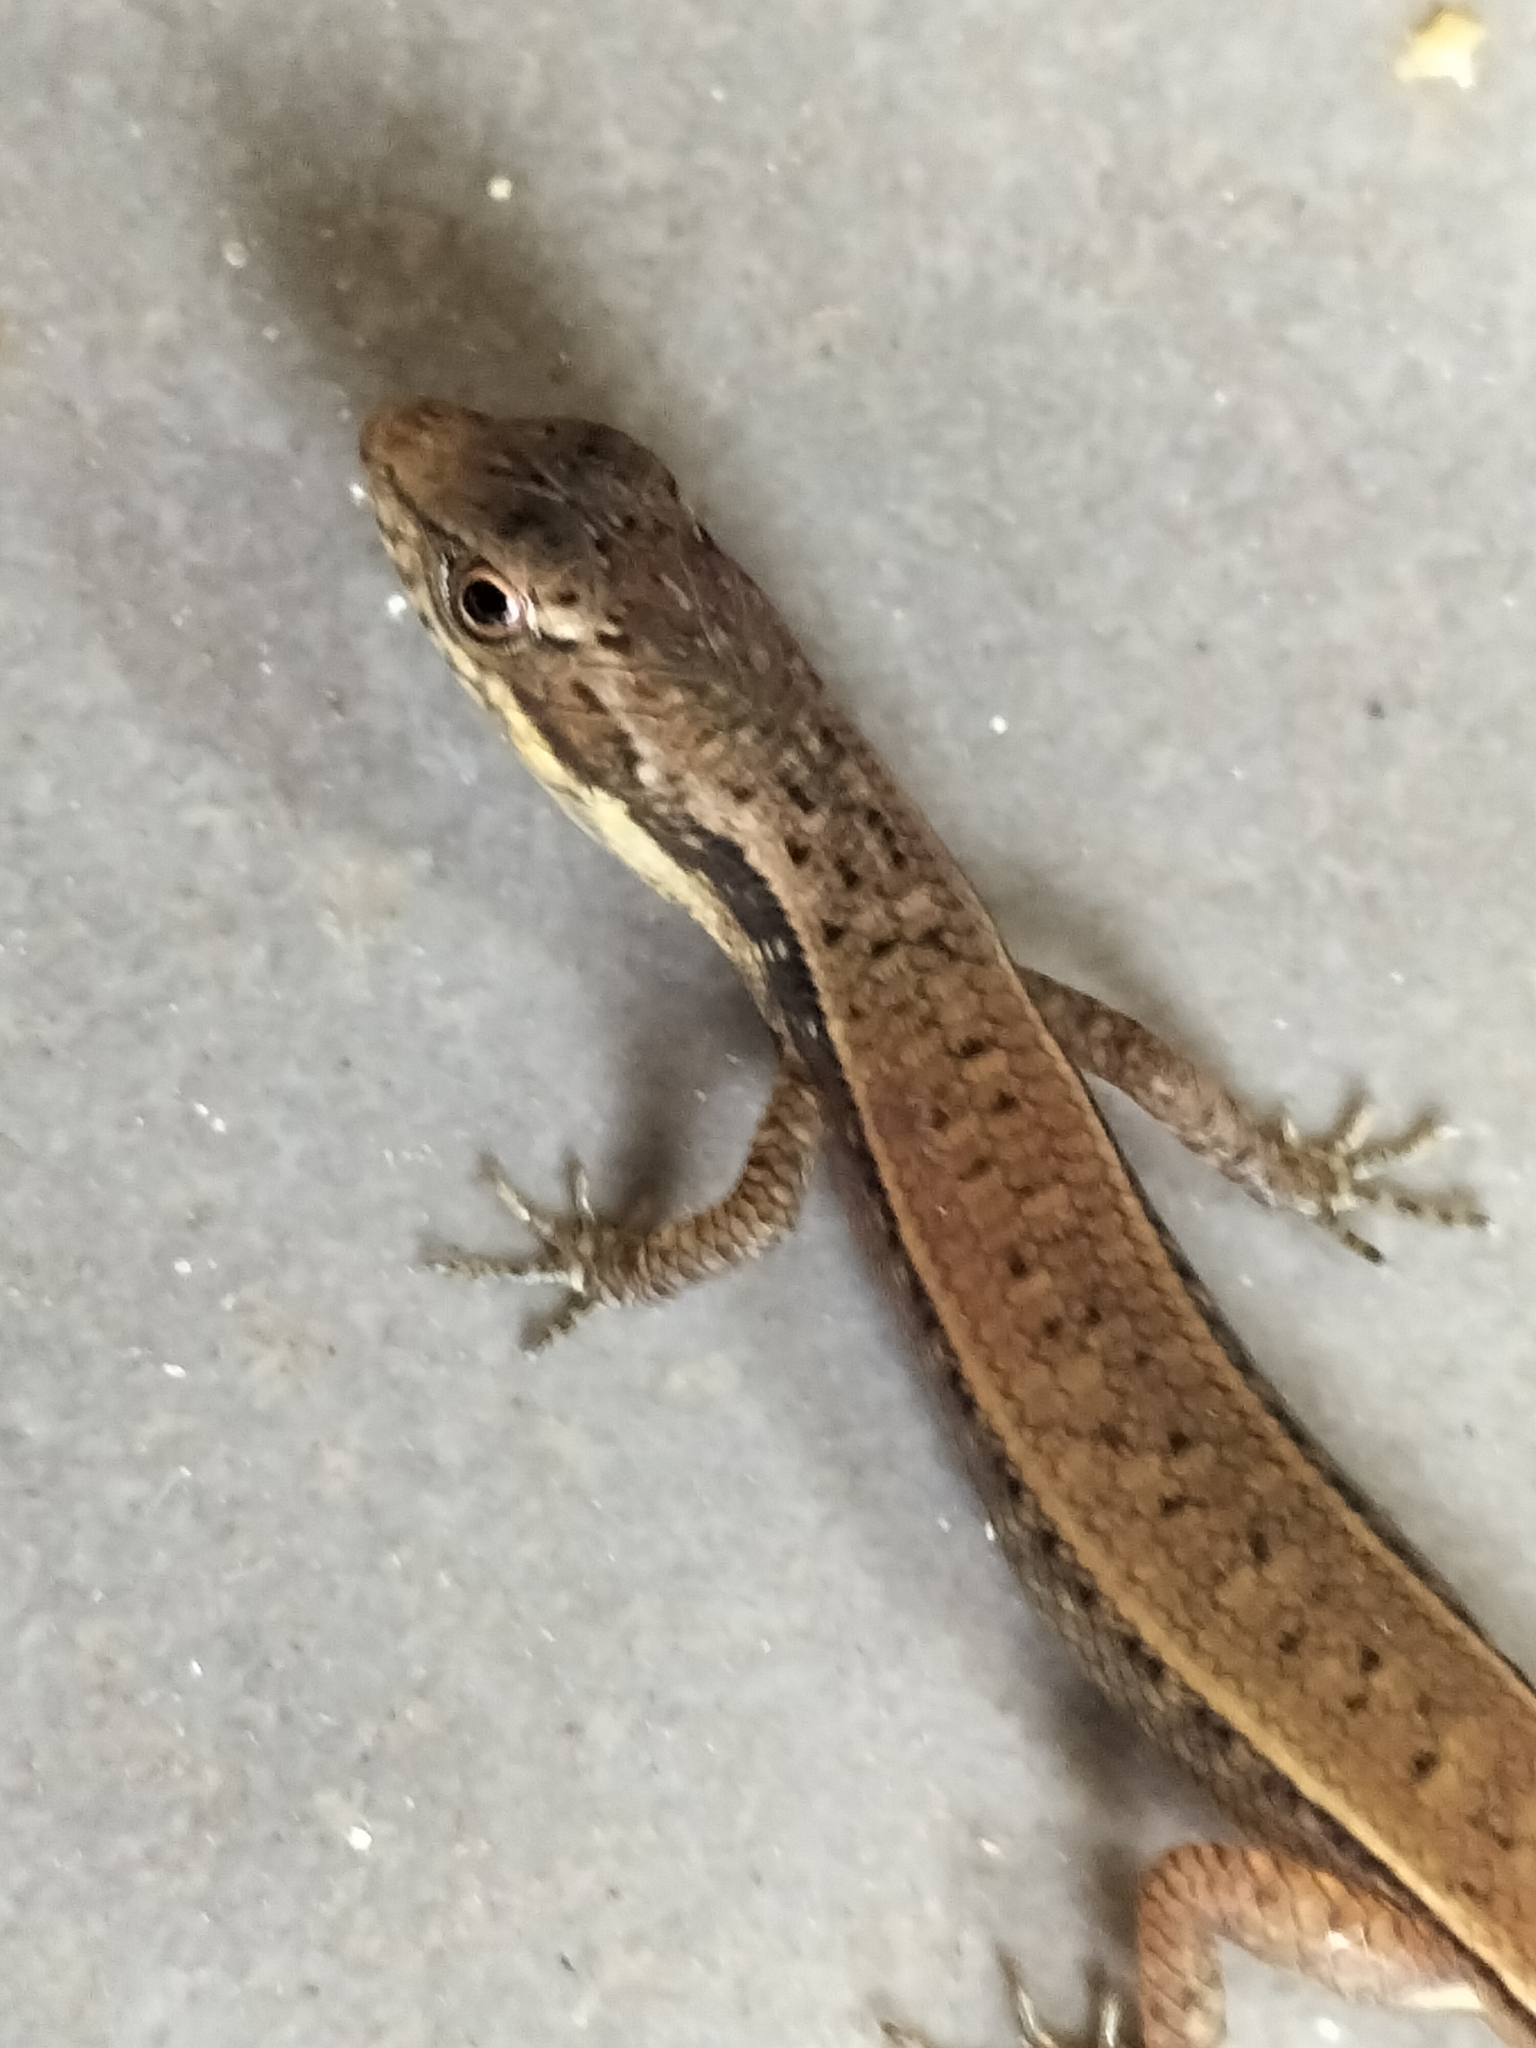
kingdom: Animalia
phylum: Chordata
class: Squamata
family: Scincidae
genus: Saproscincus
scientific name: Saproscincus basiliscus
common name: Pale-lipped shadeskink
